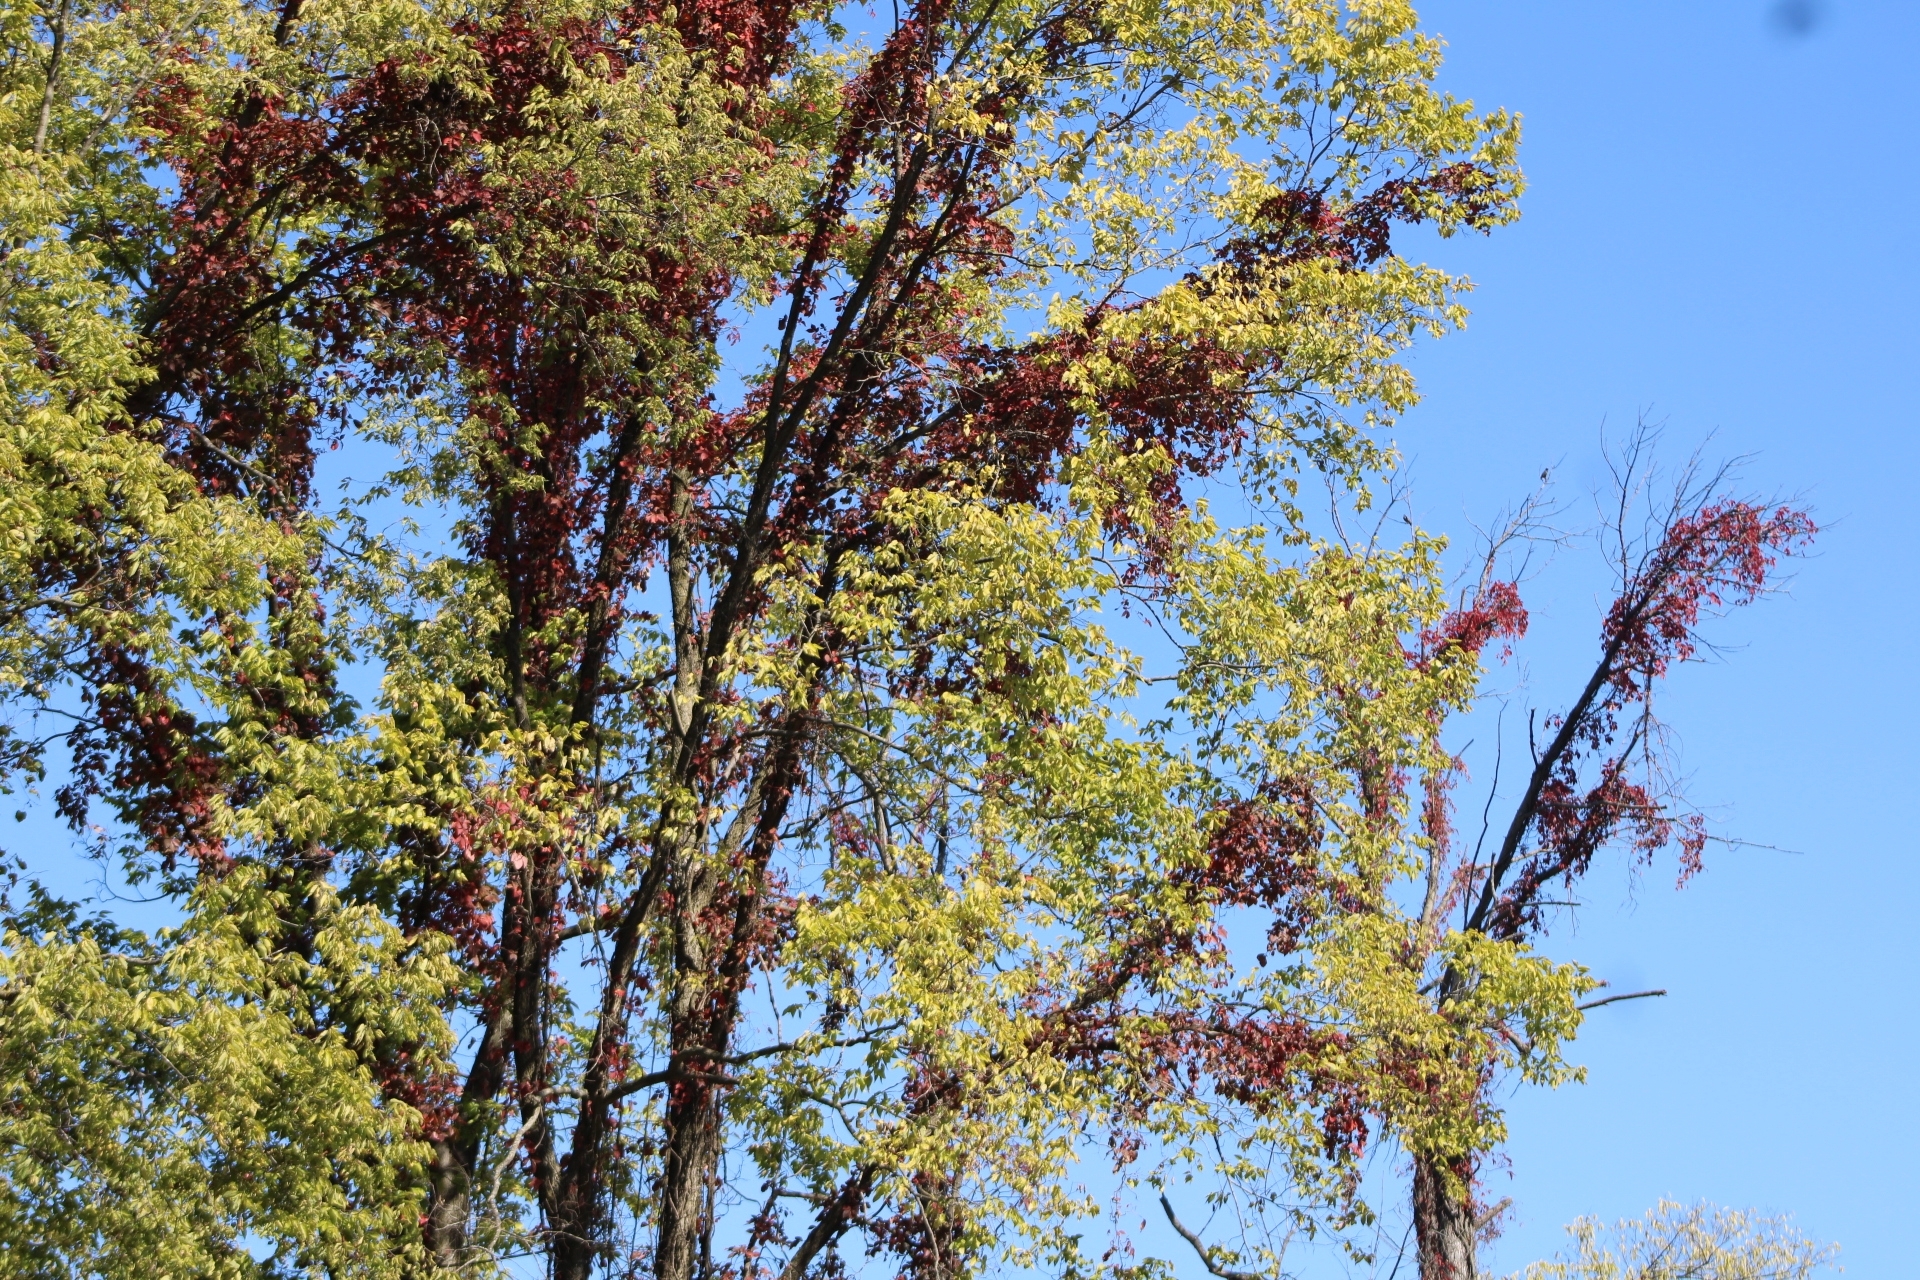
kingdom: Plantae
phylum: Tracheophyta
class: Magnoliopsida
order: Vitales
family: Vitaceae
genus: Parthenocissus
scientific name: Parthenocissus quinquefolia
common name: Virginia-creeper
